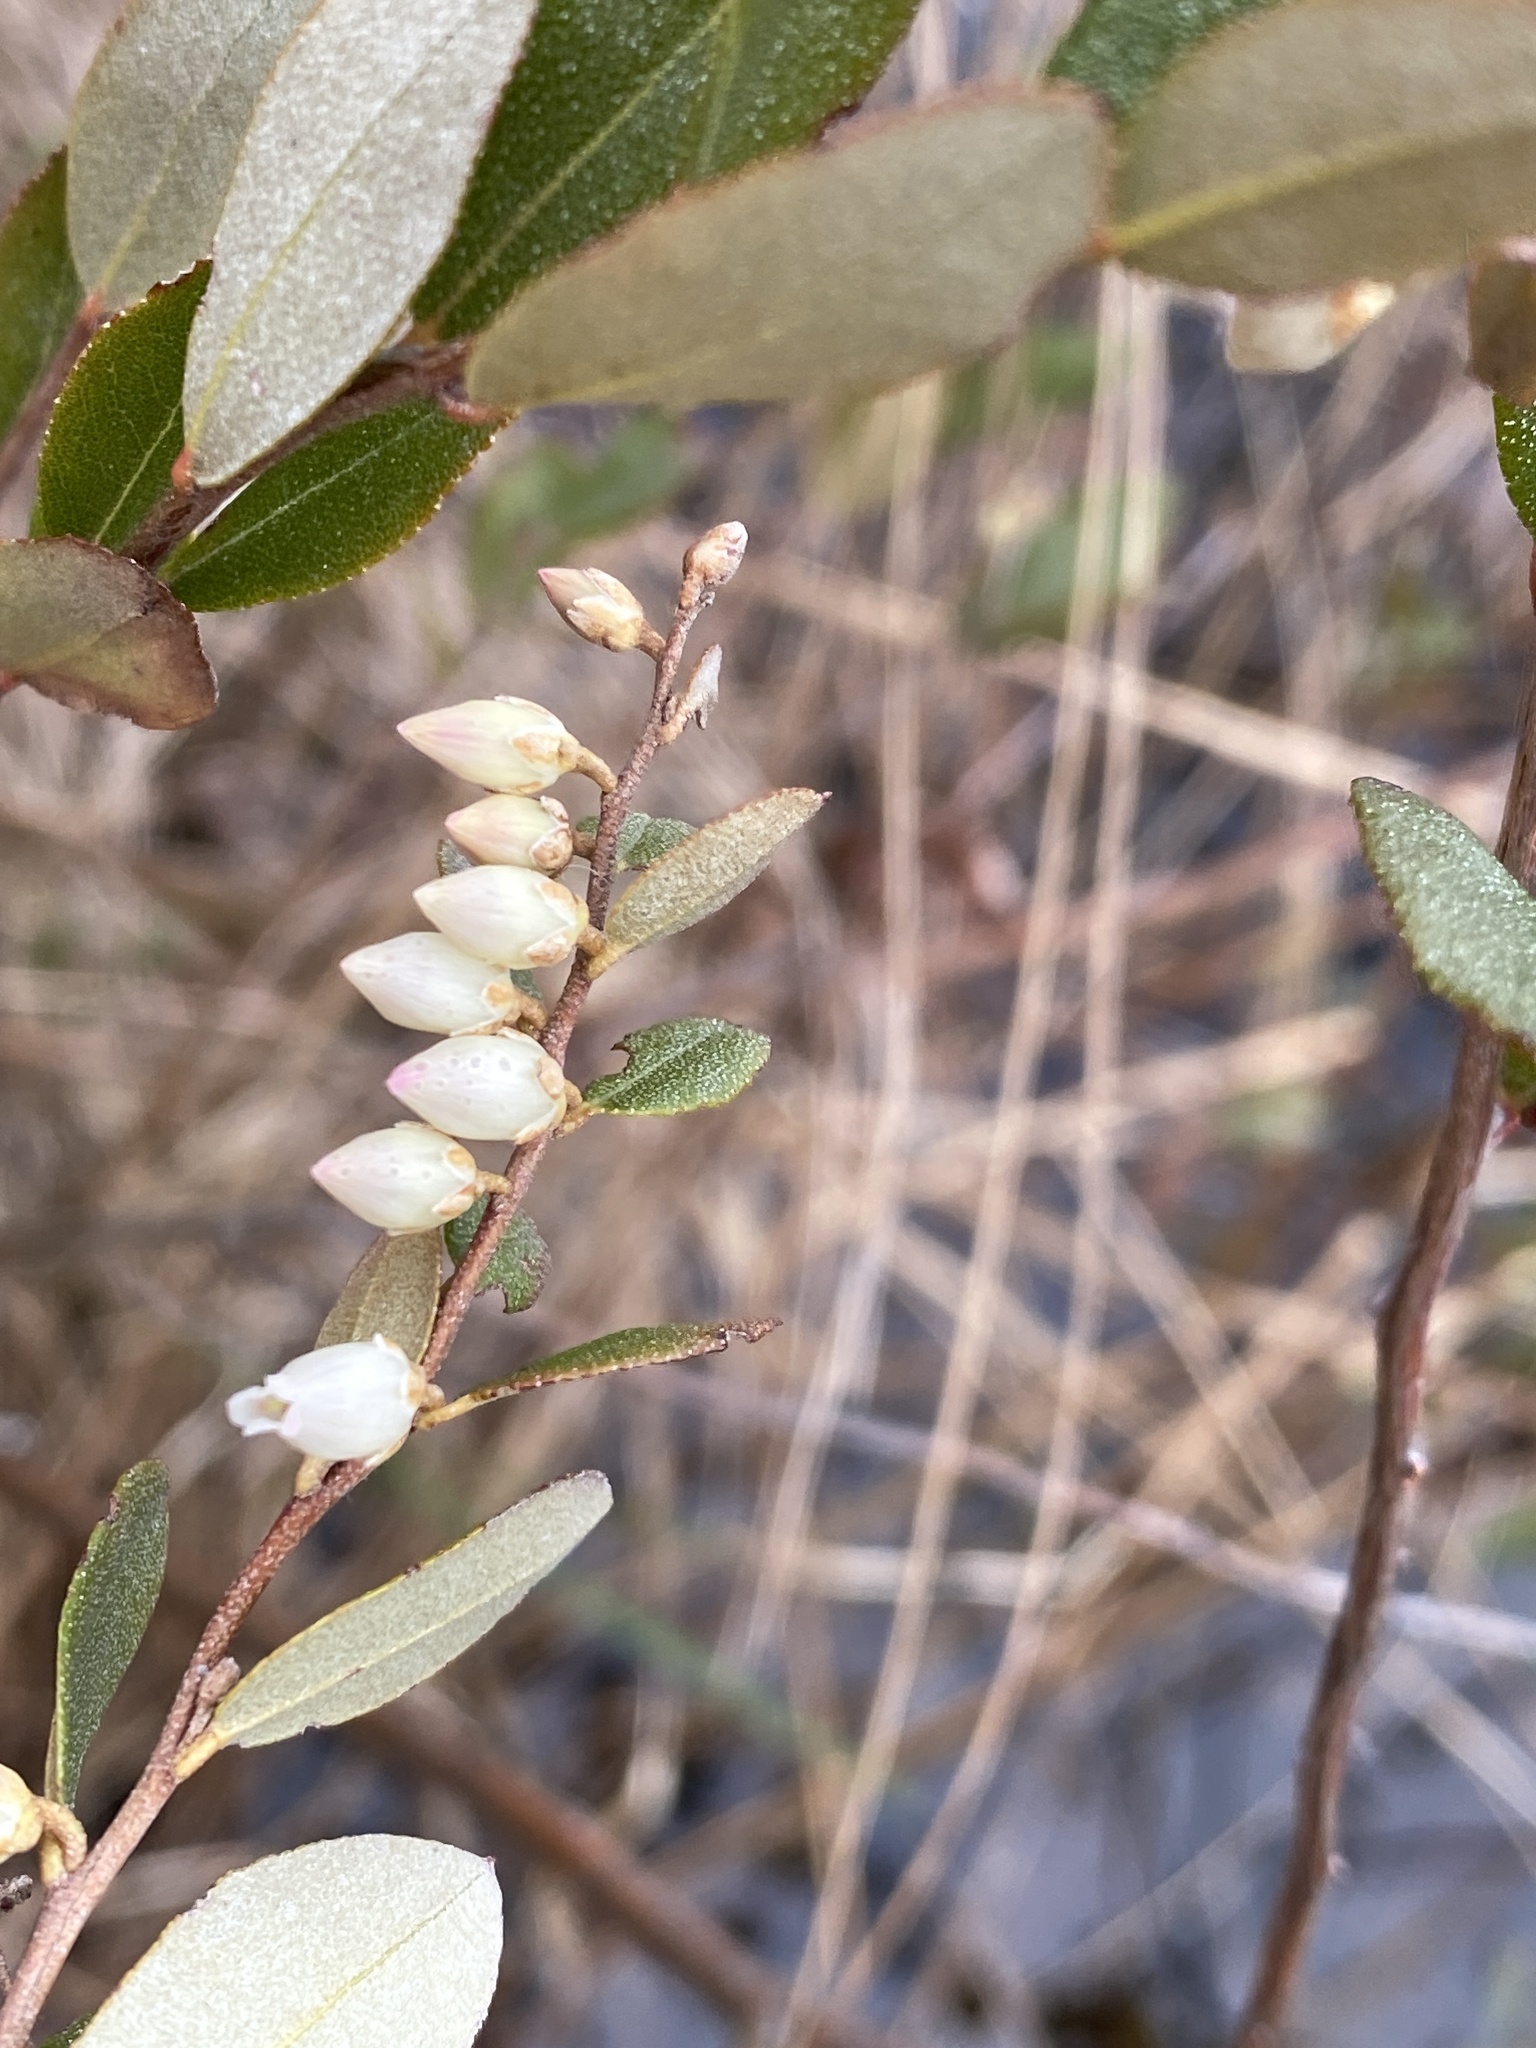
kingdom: Plantae
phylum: Tracheophyta
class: Magnoliopsida
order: Ericales
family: Ericaceae
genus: Chamaedaphne
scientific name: Chamaedaphne calyculata
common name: Leatherleaf
